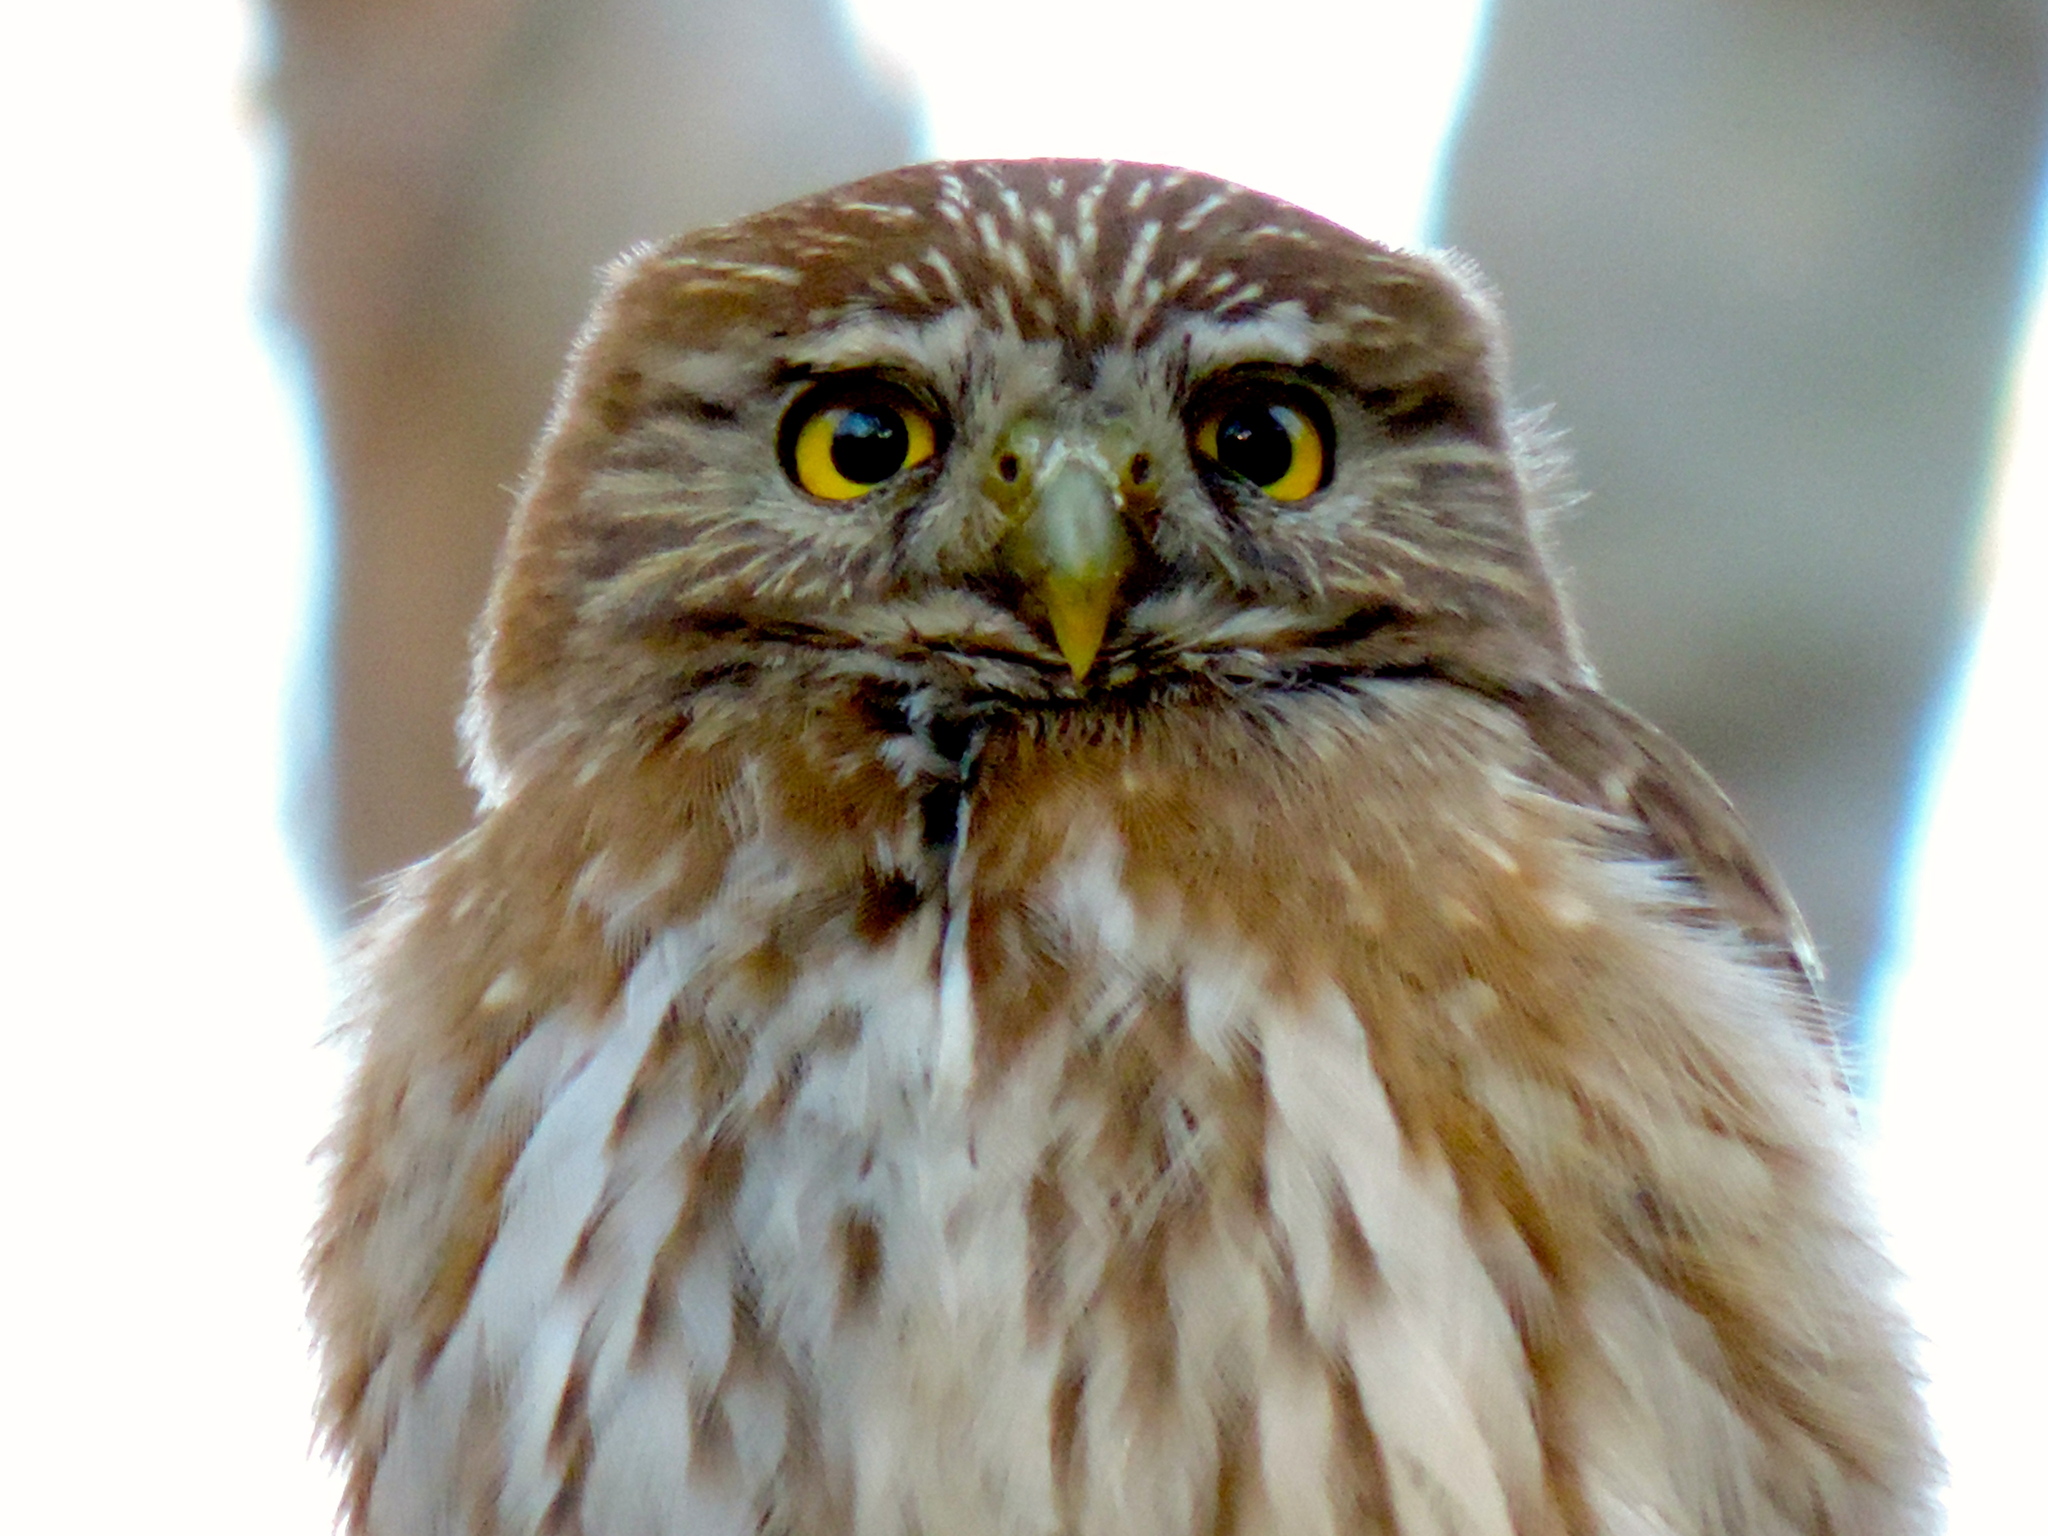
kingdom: Animalia
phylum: Chordata
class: Aves
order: Strigiformes
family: Strigidae
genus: Glaucidium
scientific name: Glaucidium brasilianum
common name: Ferruginous pygmy-owl
